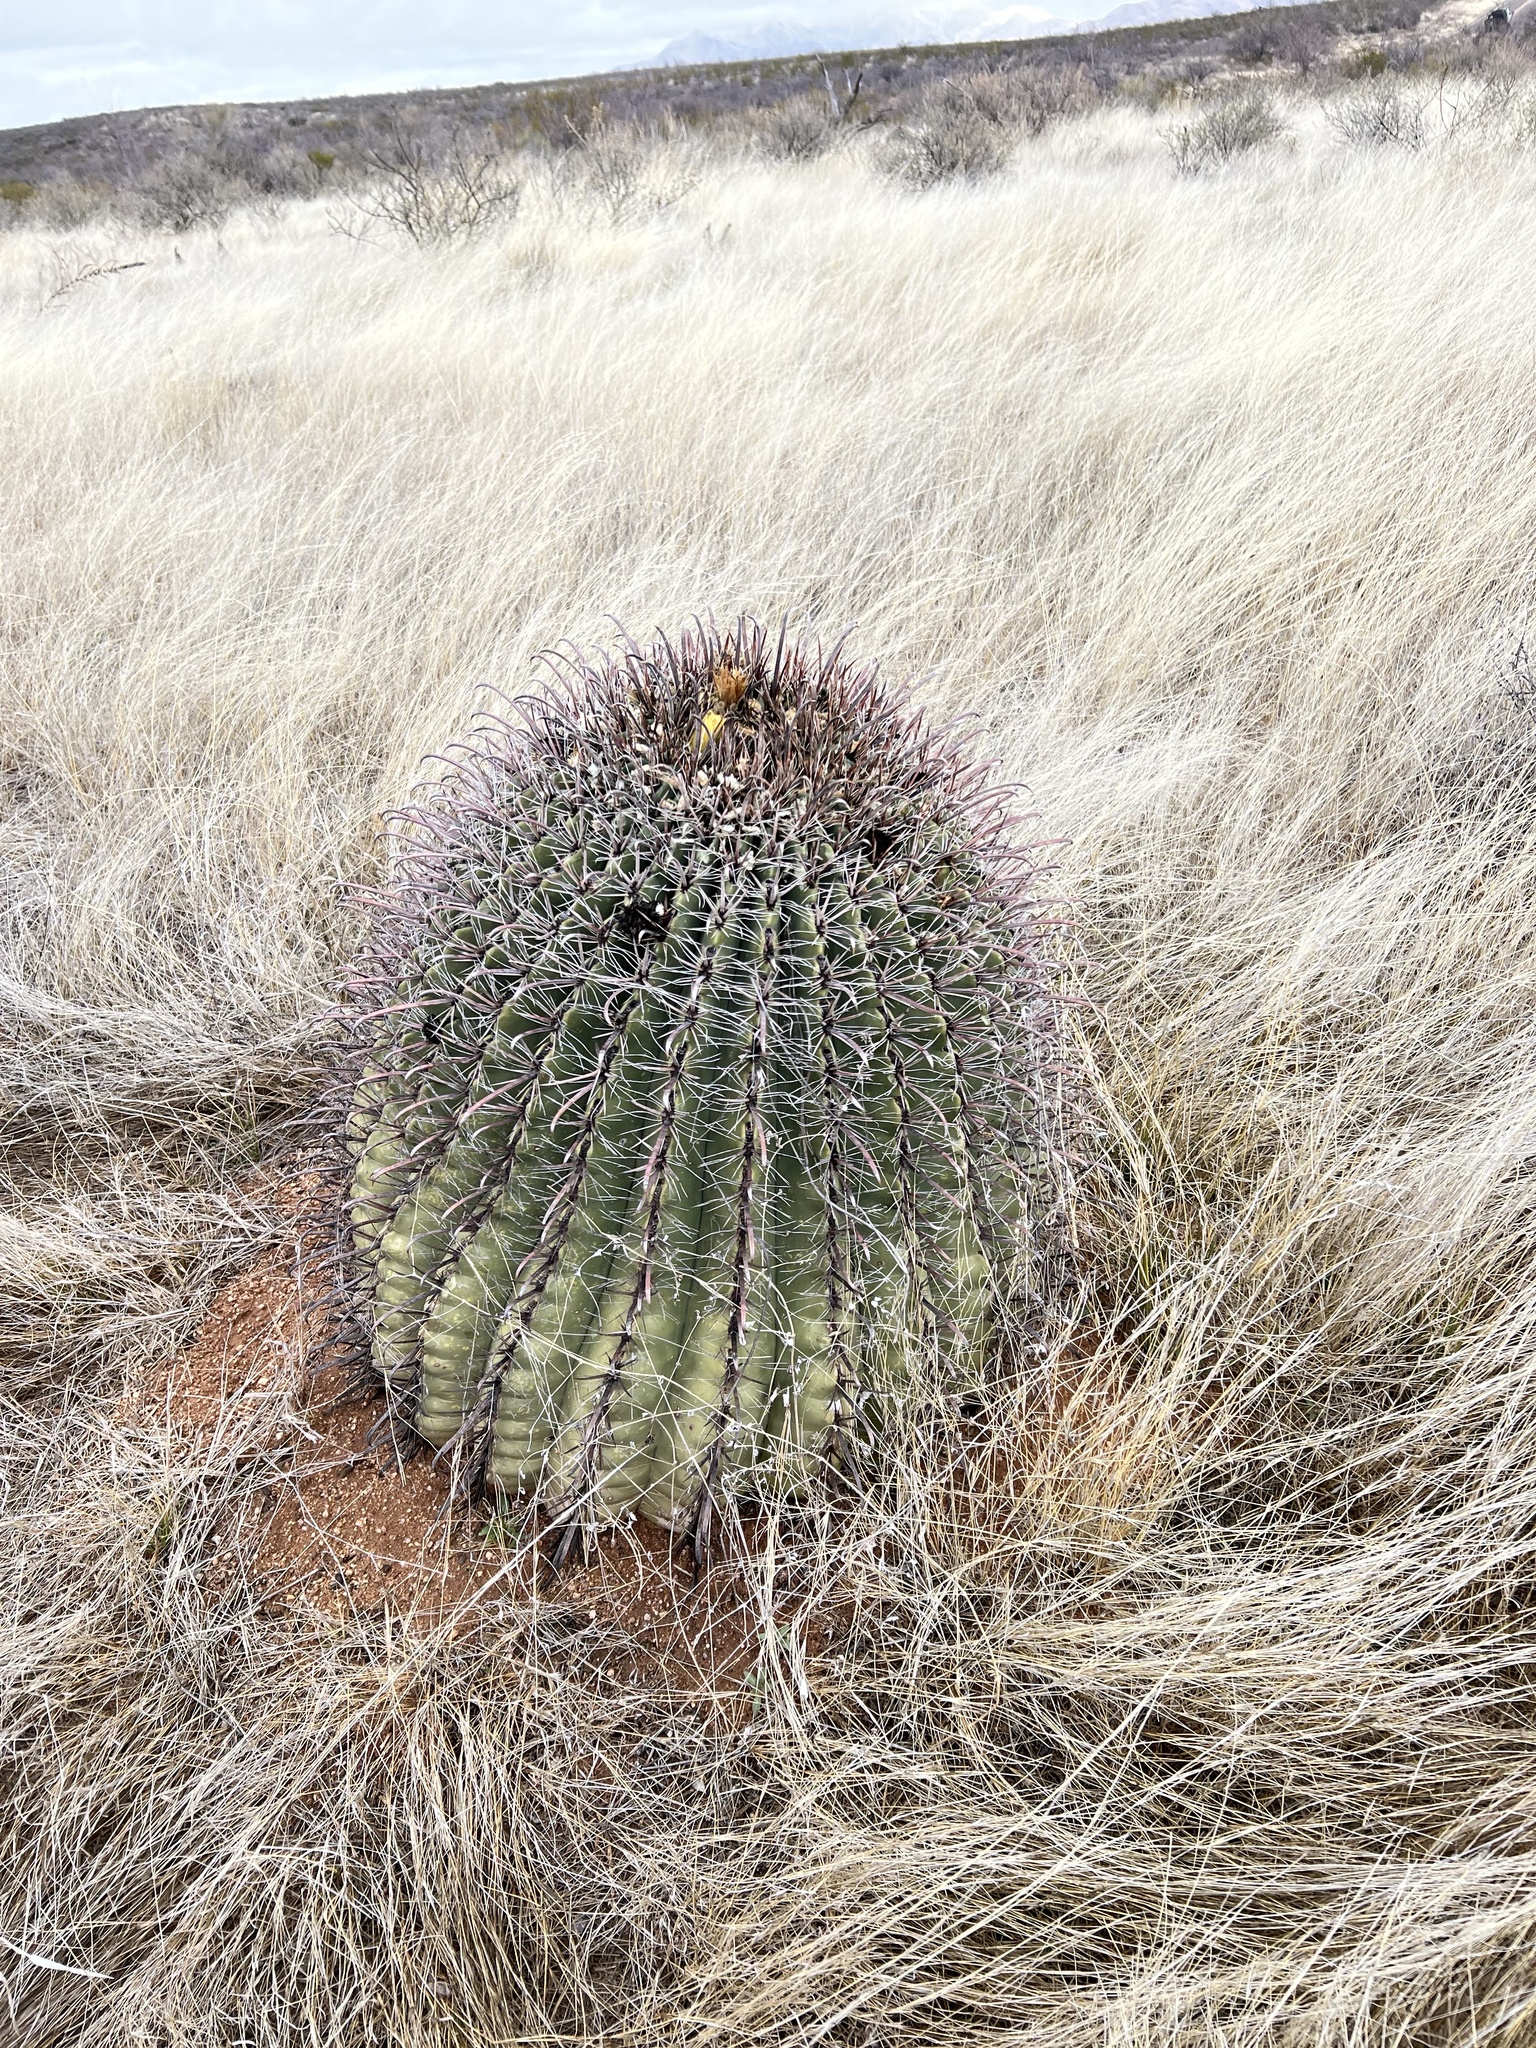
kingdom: Plantae
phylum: Tracheophyta
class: Magnoliopsida
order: Caryophyllales
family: Cactaceae
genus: Ferocactus
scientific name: Ferocactus wislizeni
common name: Candy barrel cactus
